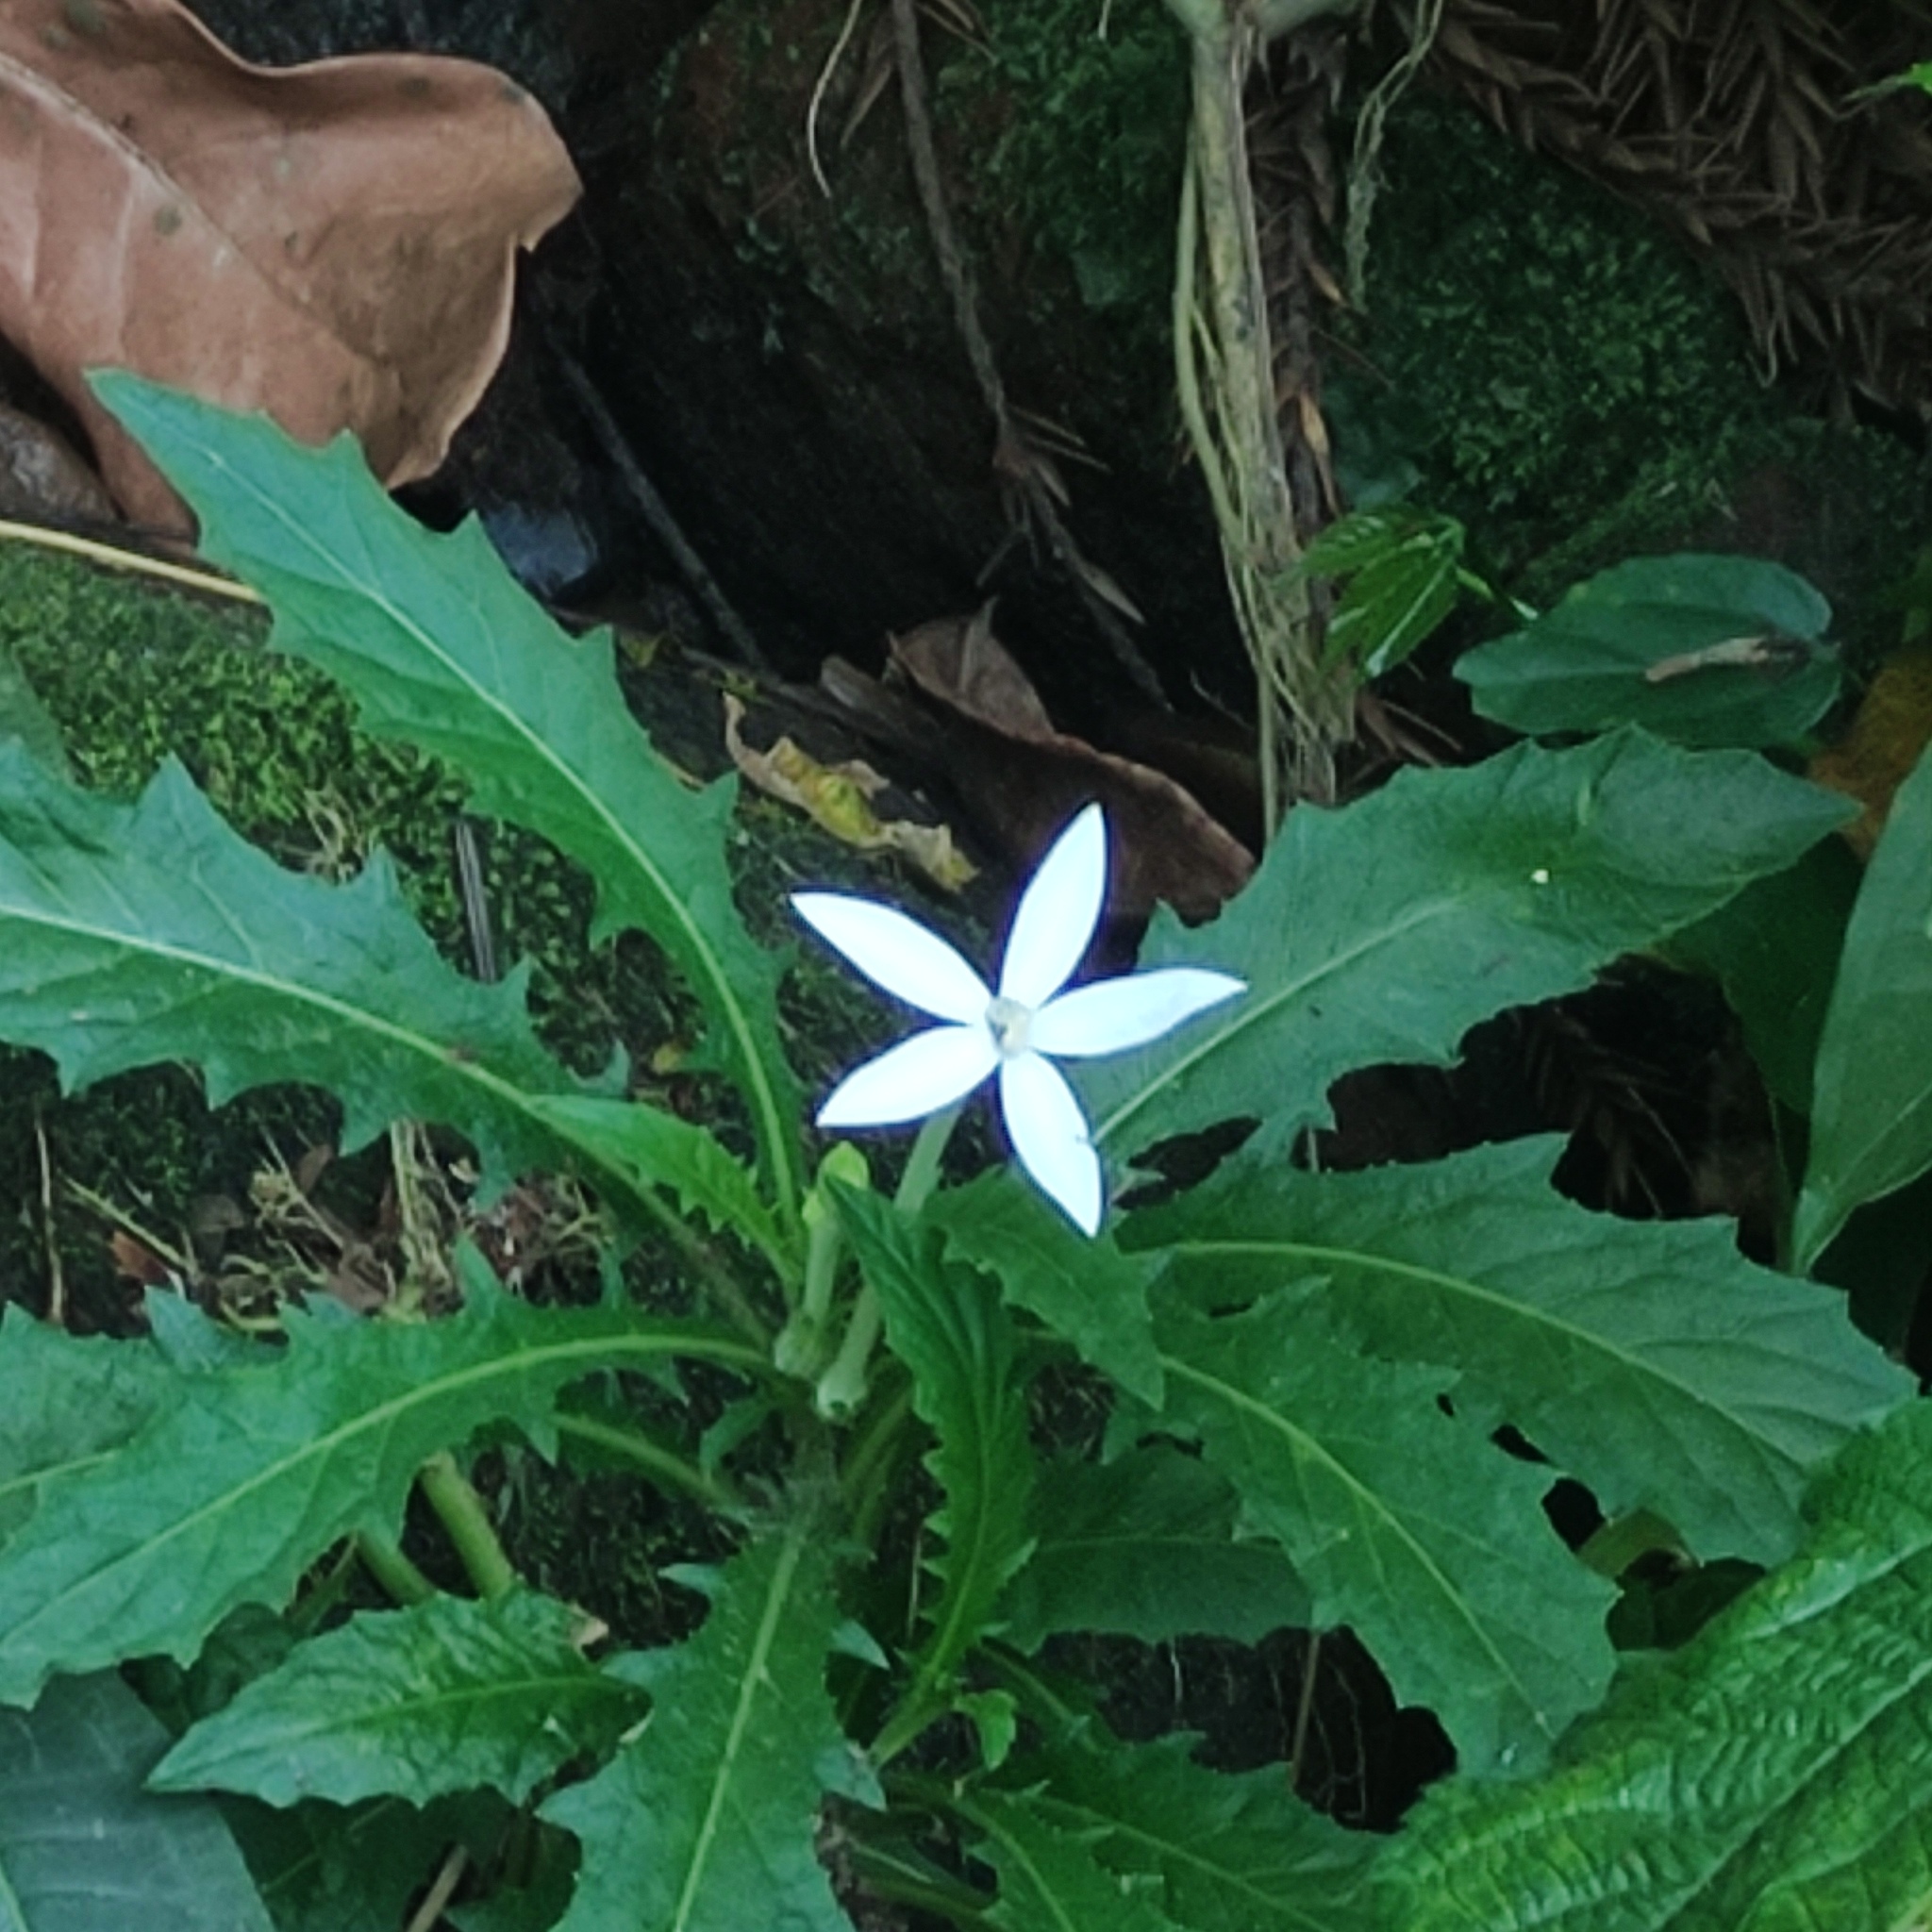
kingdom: Plantae
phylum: Tracheophyta
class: Magnoliopsida
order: Asterales
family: Campanulaceae
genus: Hippobroma
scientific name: Hippobroma longiflora
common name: Madamfate
